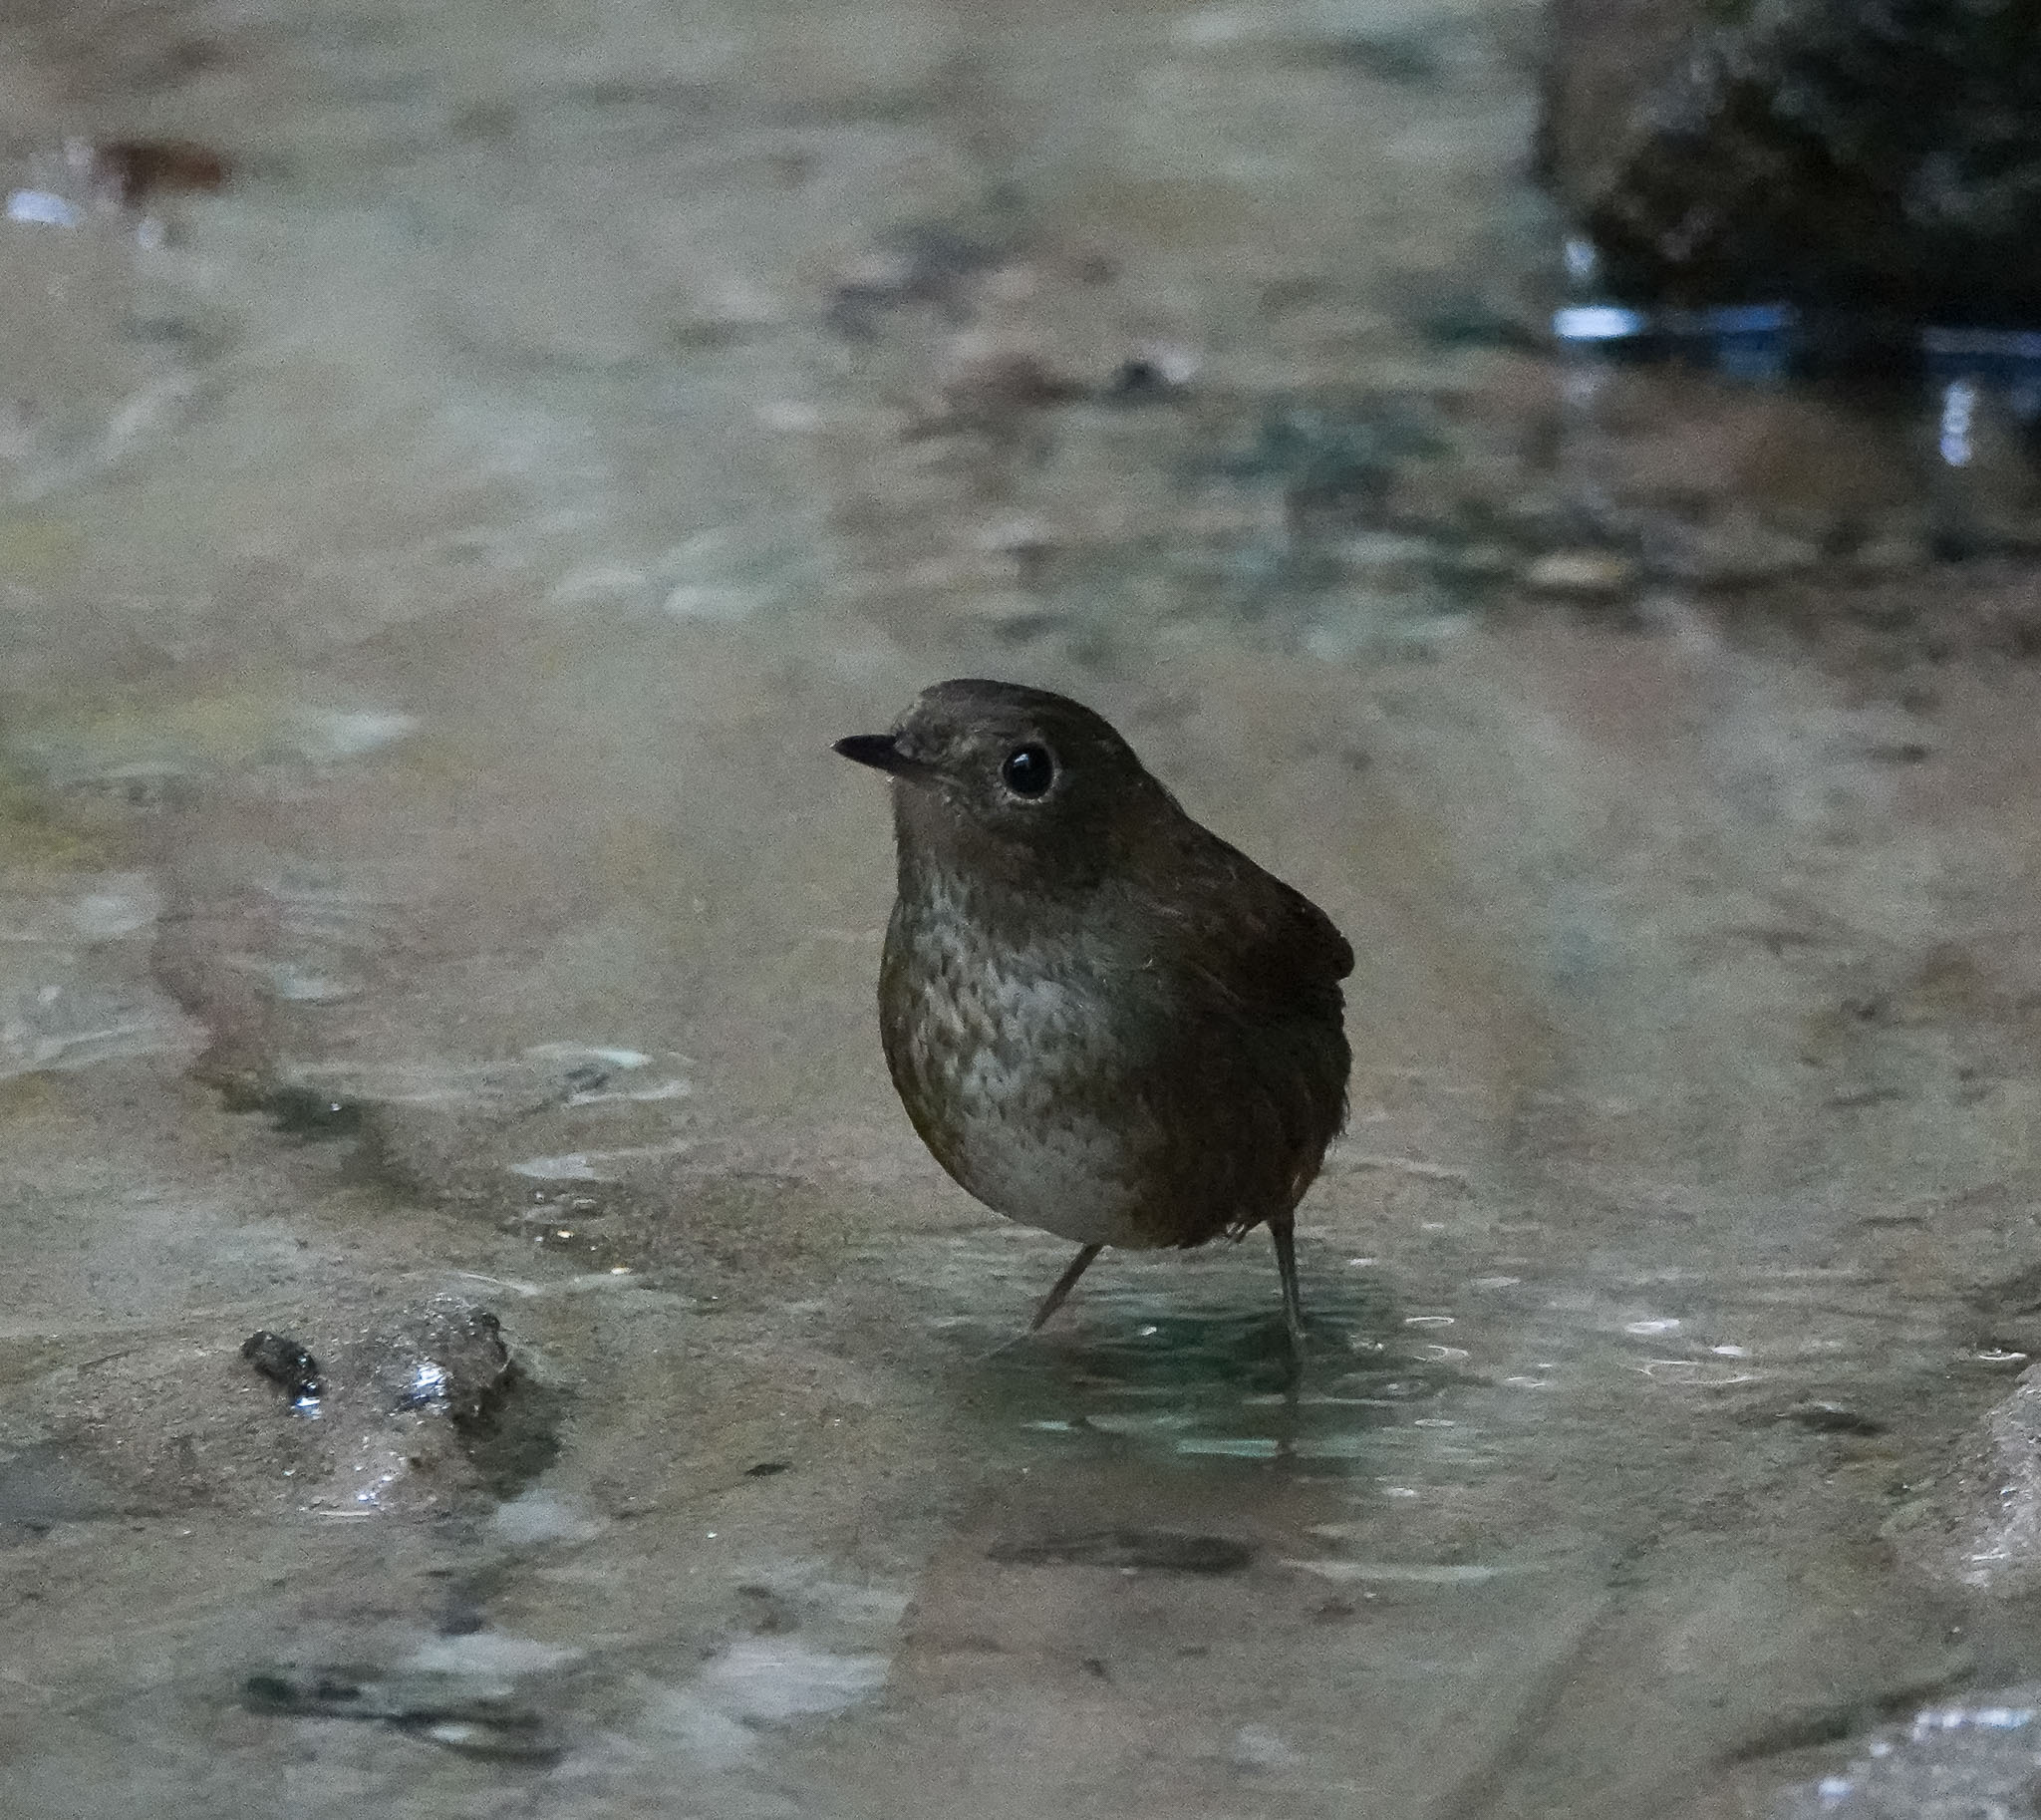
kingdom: Animalia
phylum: Chordata
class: Aves
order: Passeriformes
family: Muscicapidae
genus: Brachypteryx
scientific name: Brachypteryx leucophris
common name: Lesser shortwing
